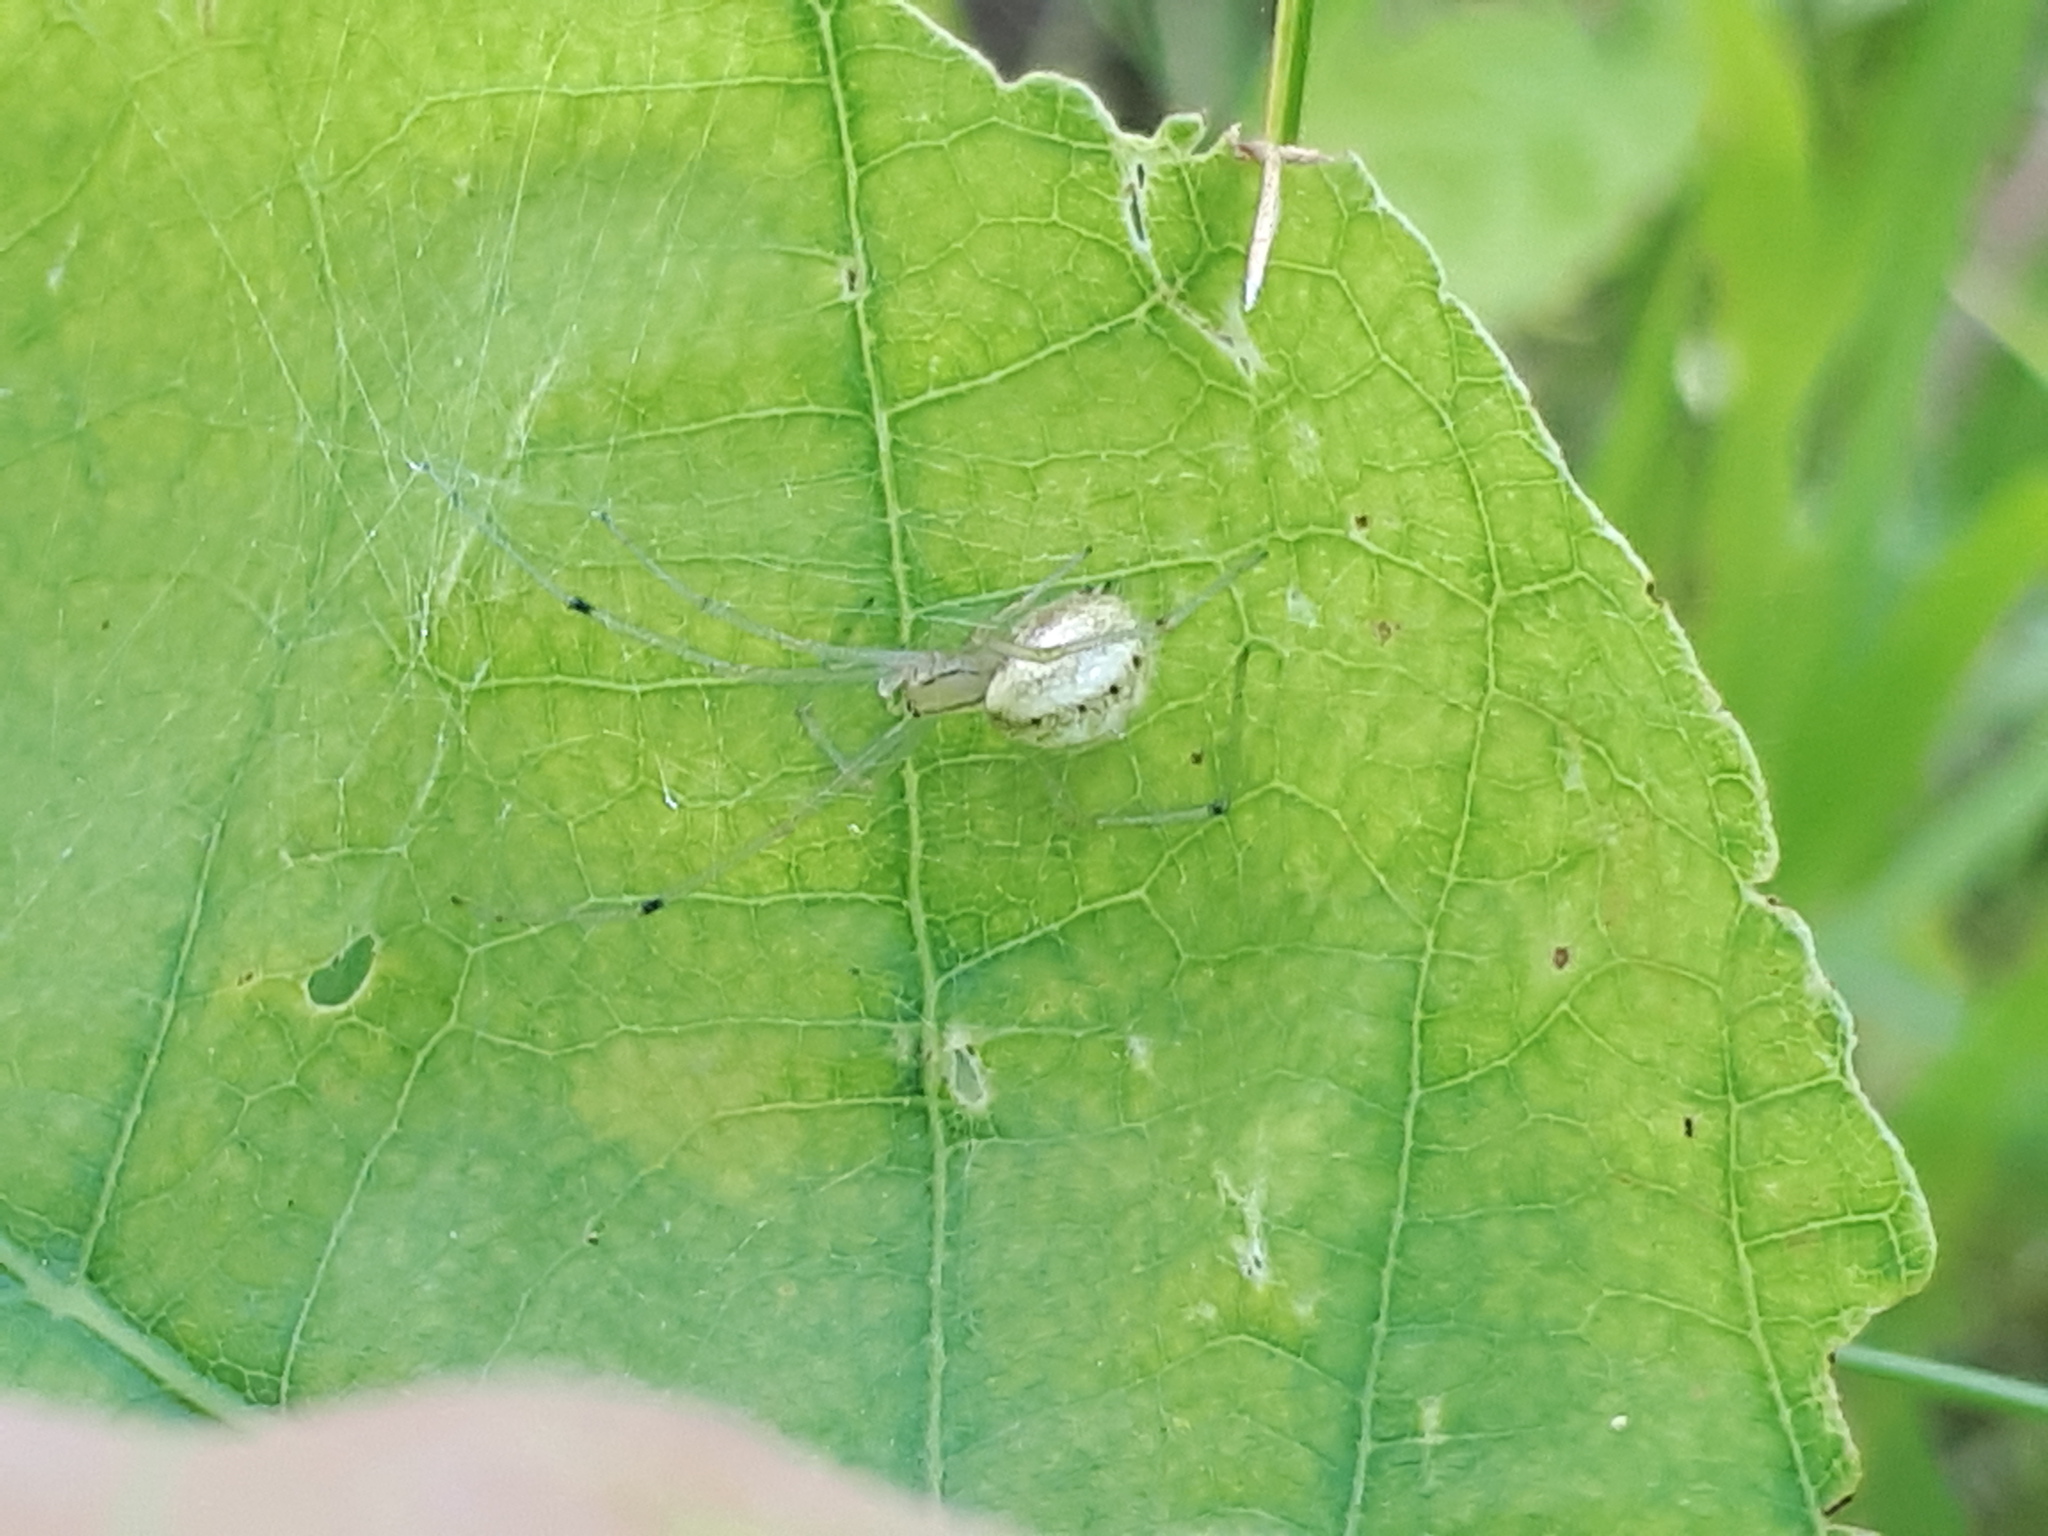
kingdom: Animalia
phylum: Arthropoda
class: Arachnida
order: Araneae
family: Theridiidae
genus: Enoplognatha
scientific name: Enoplognatha ovata
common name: Common candy-striped spider
